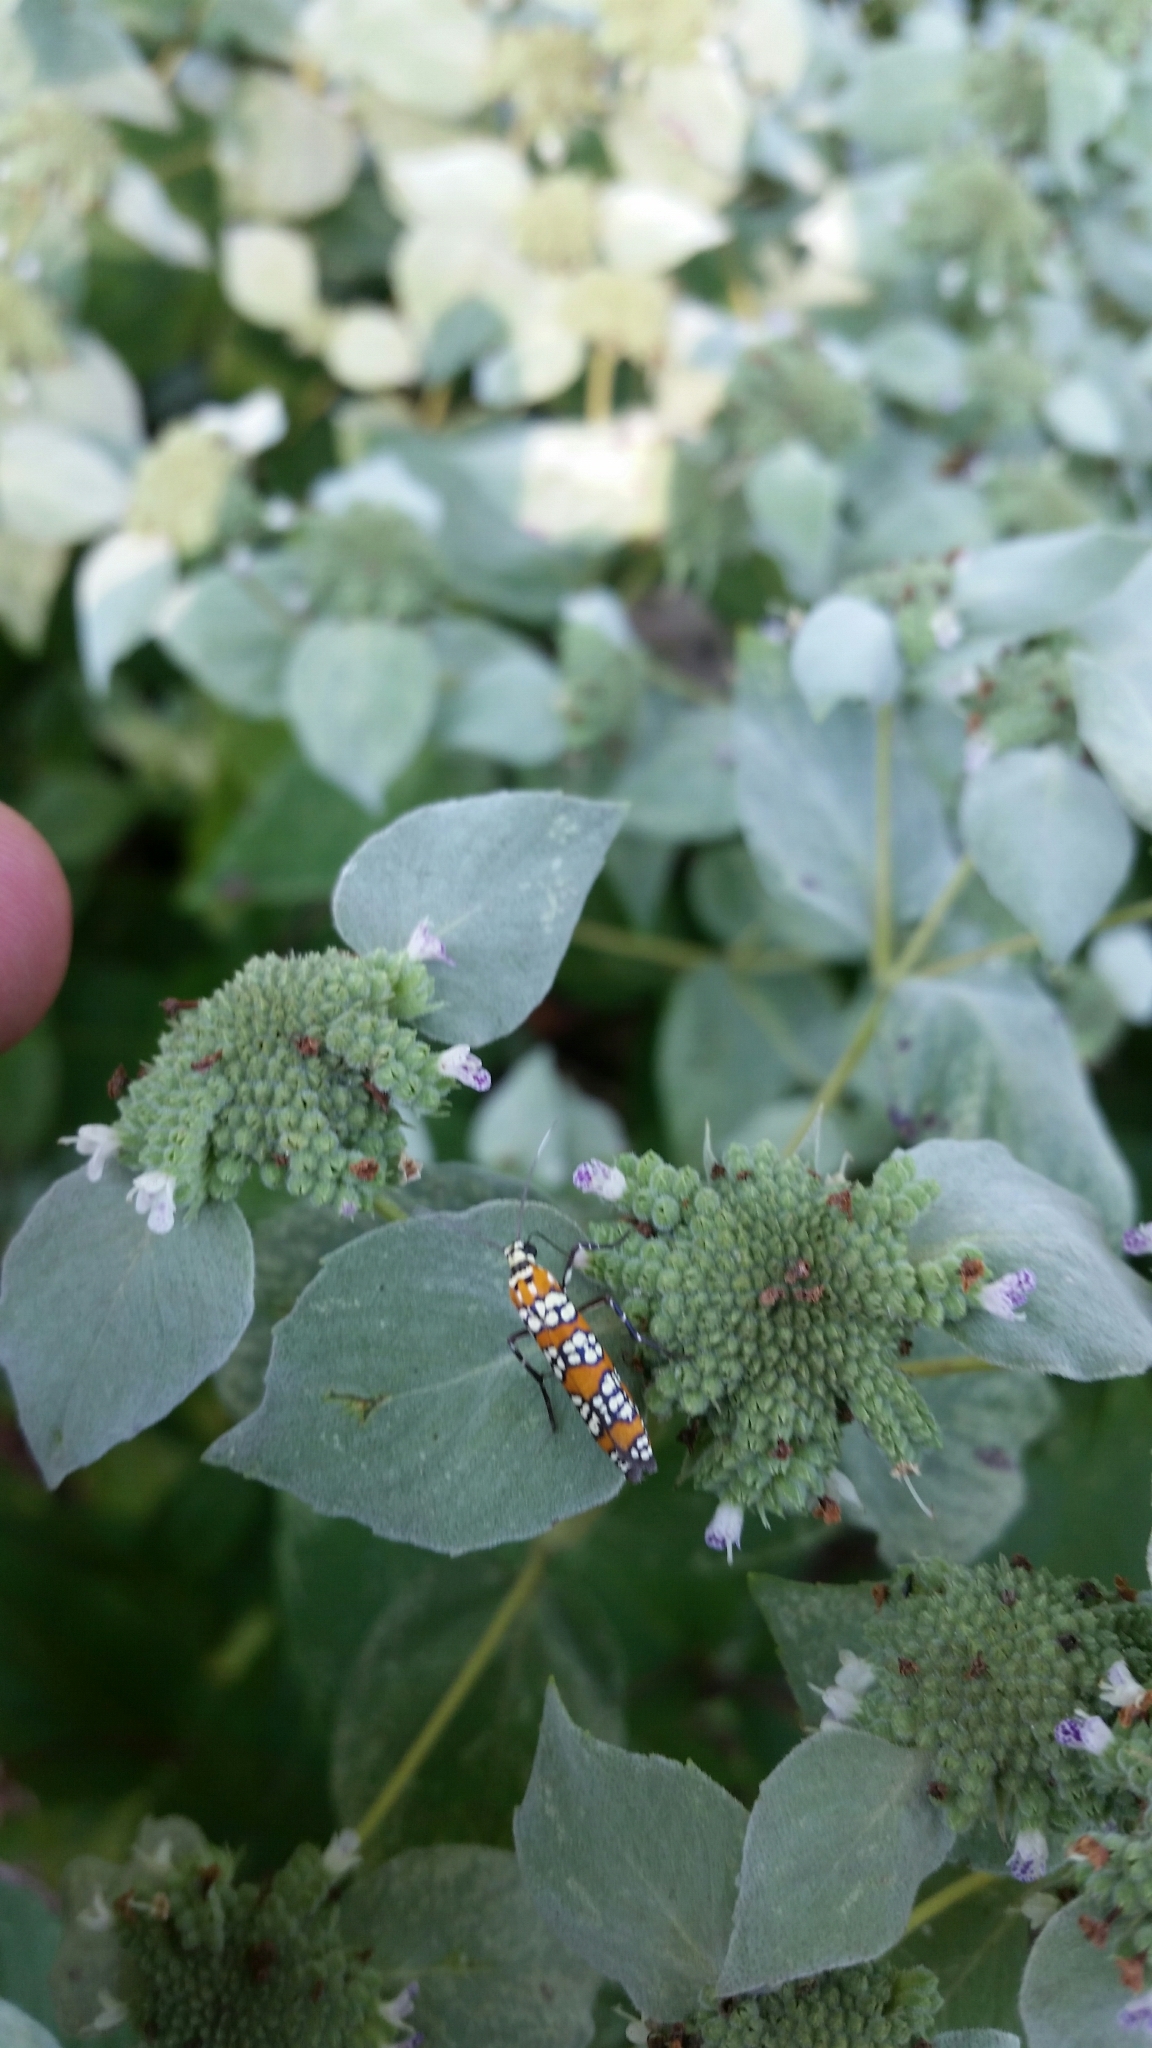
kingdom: Animalia
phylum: Arthropoda
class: Insecta
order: Lepidoptera
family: Attevidae
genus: Atteva
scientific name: Atteva punctella
